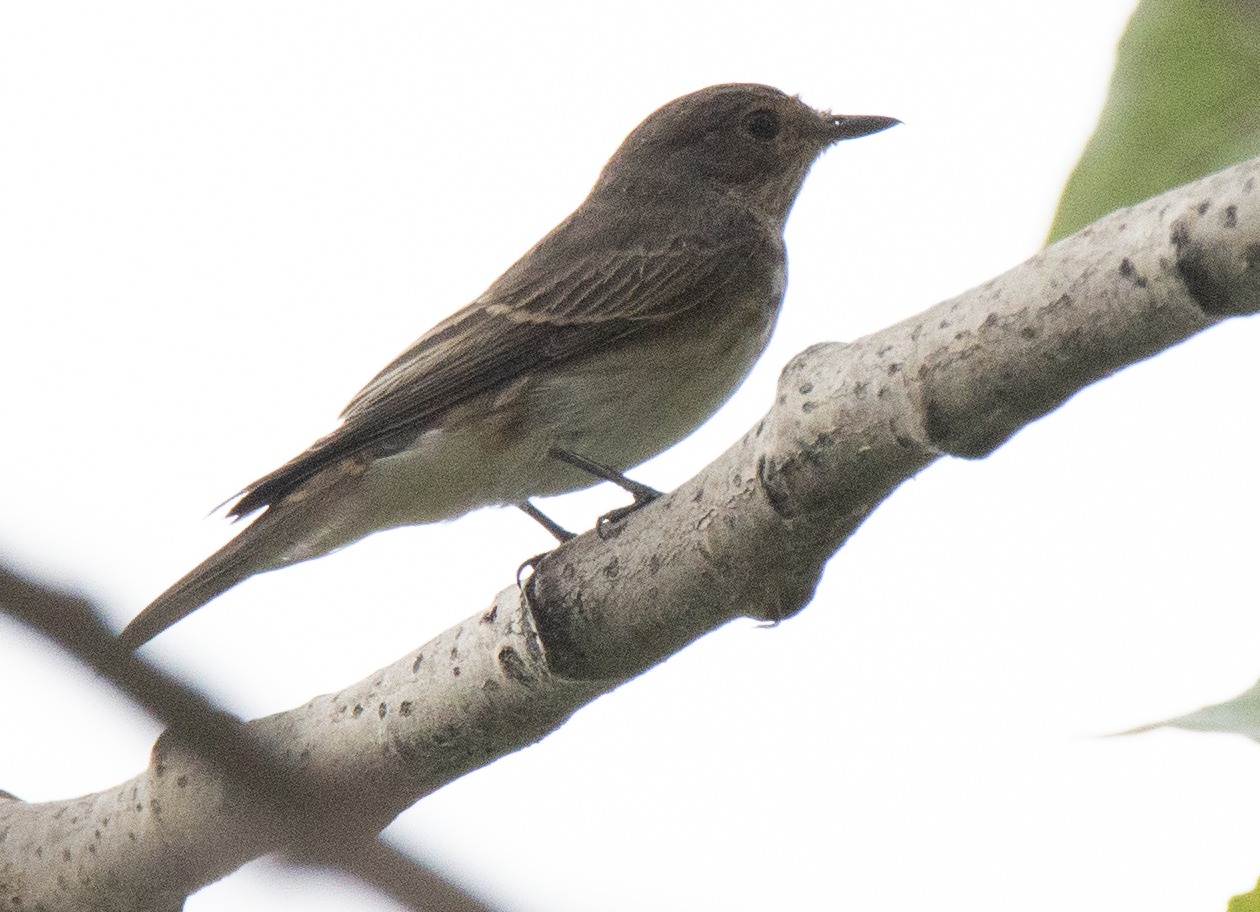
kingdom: Animalia
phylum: Chordata
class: Aves
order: Passeriformes
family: Muscicapidae
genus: Muscicapa
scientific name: Muscicapa striata
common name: Spotted flycatcher
